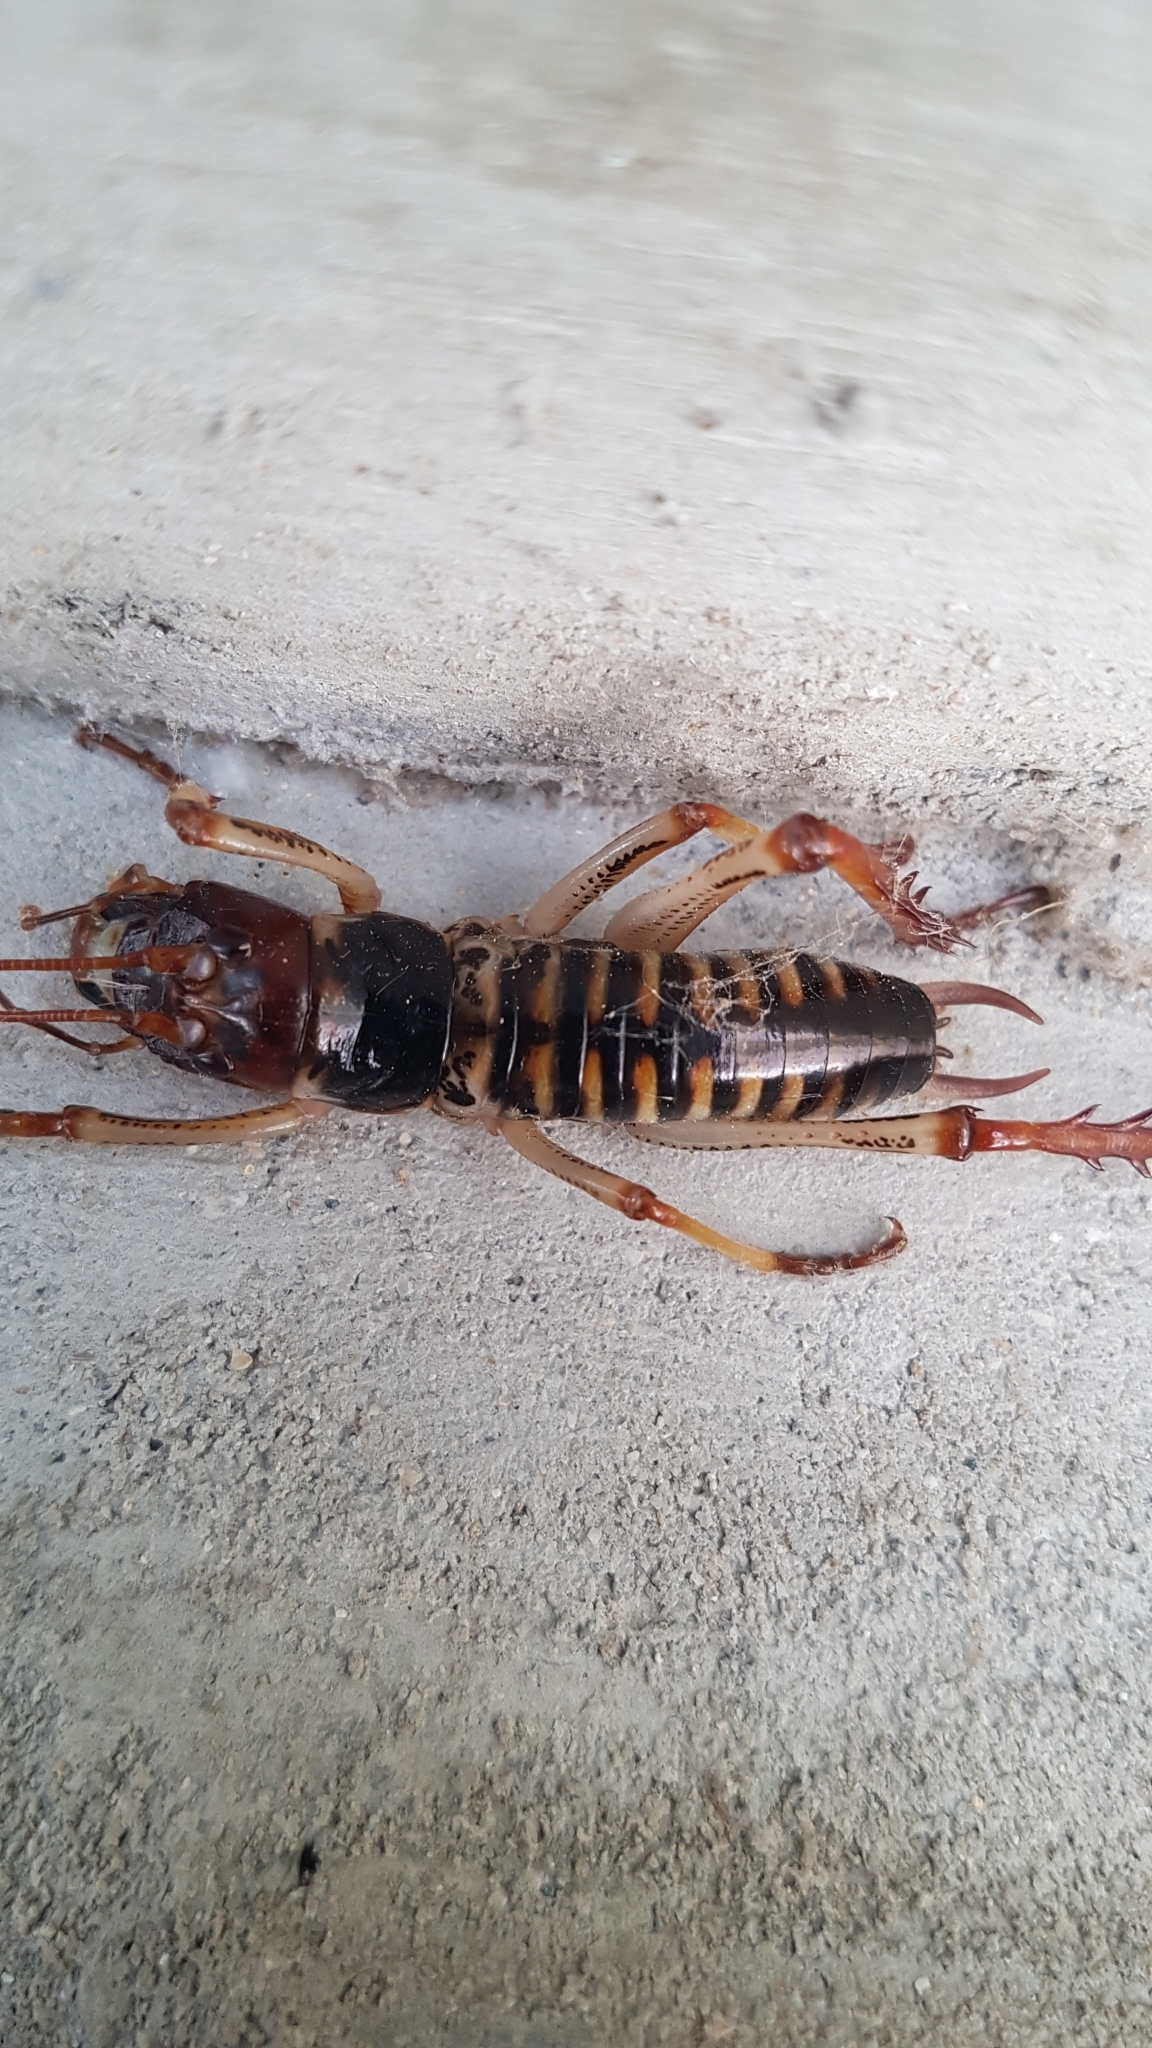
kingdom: Animalia
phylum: Arthropoda
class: Insecta
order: Orthoptera
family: Anostostomatidae
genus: Hemideina
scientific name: Hemideina crassidens
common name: Wellington tree weta
